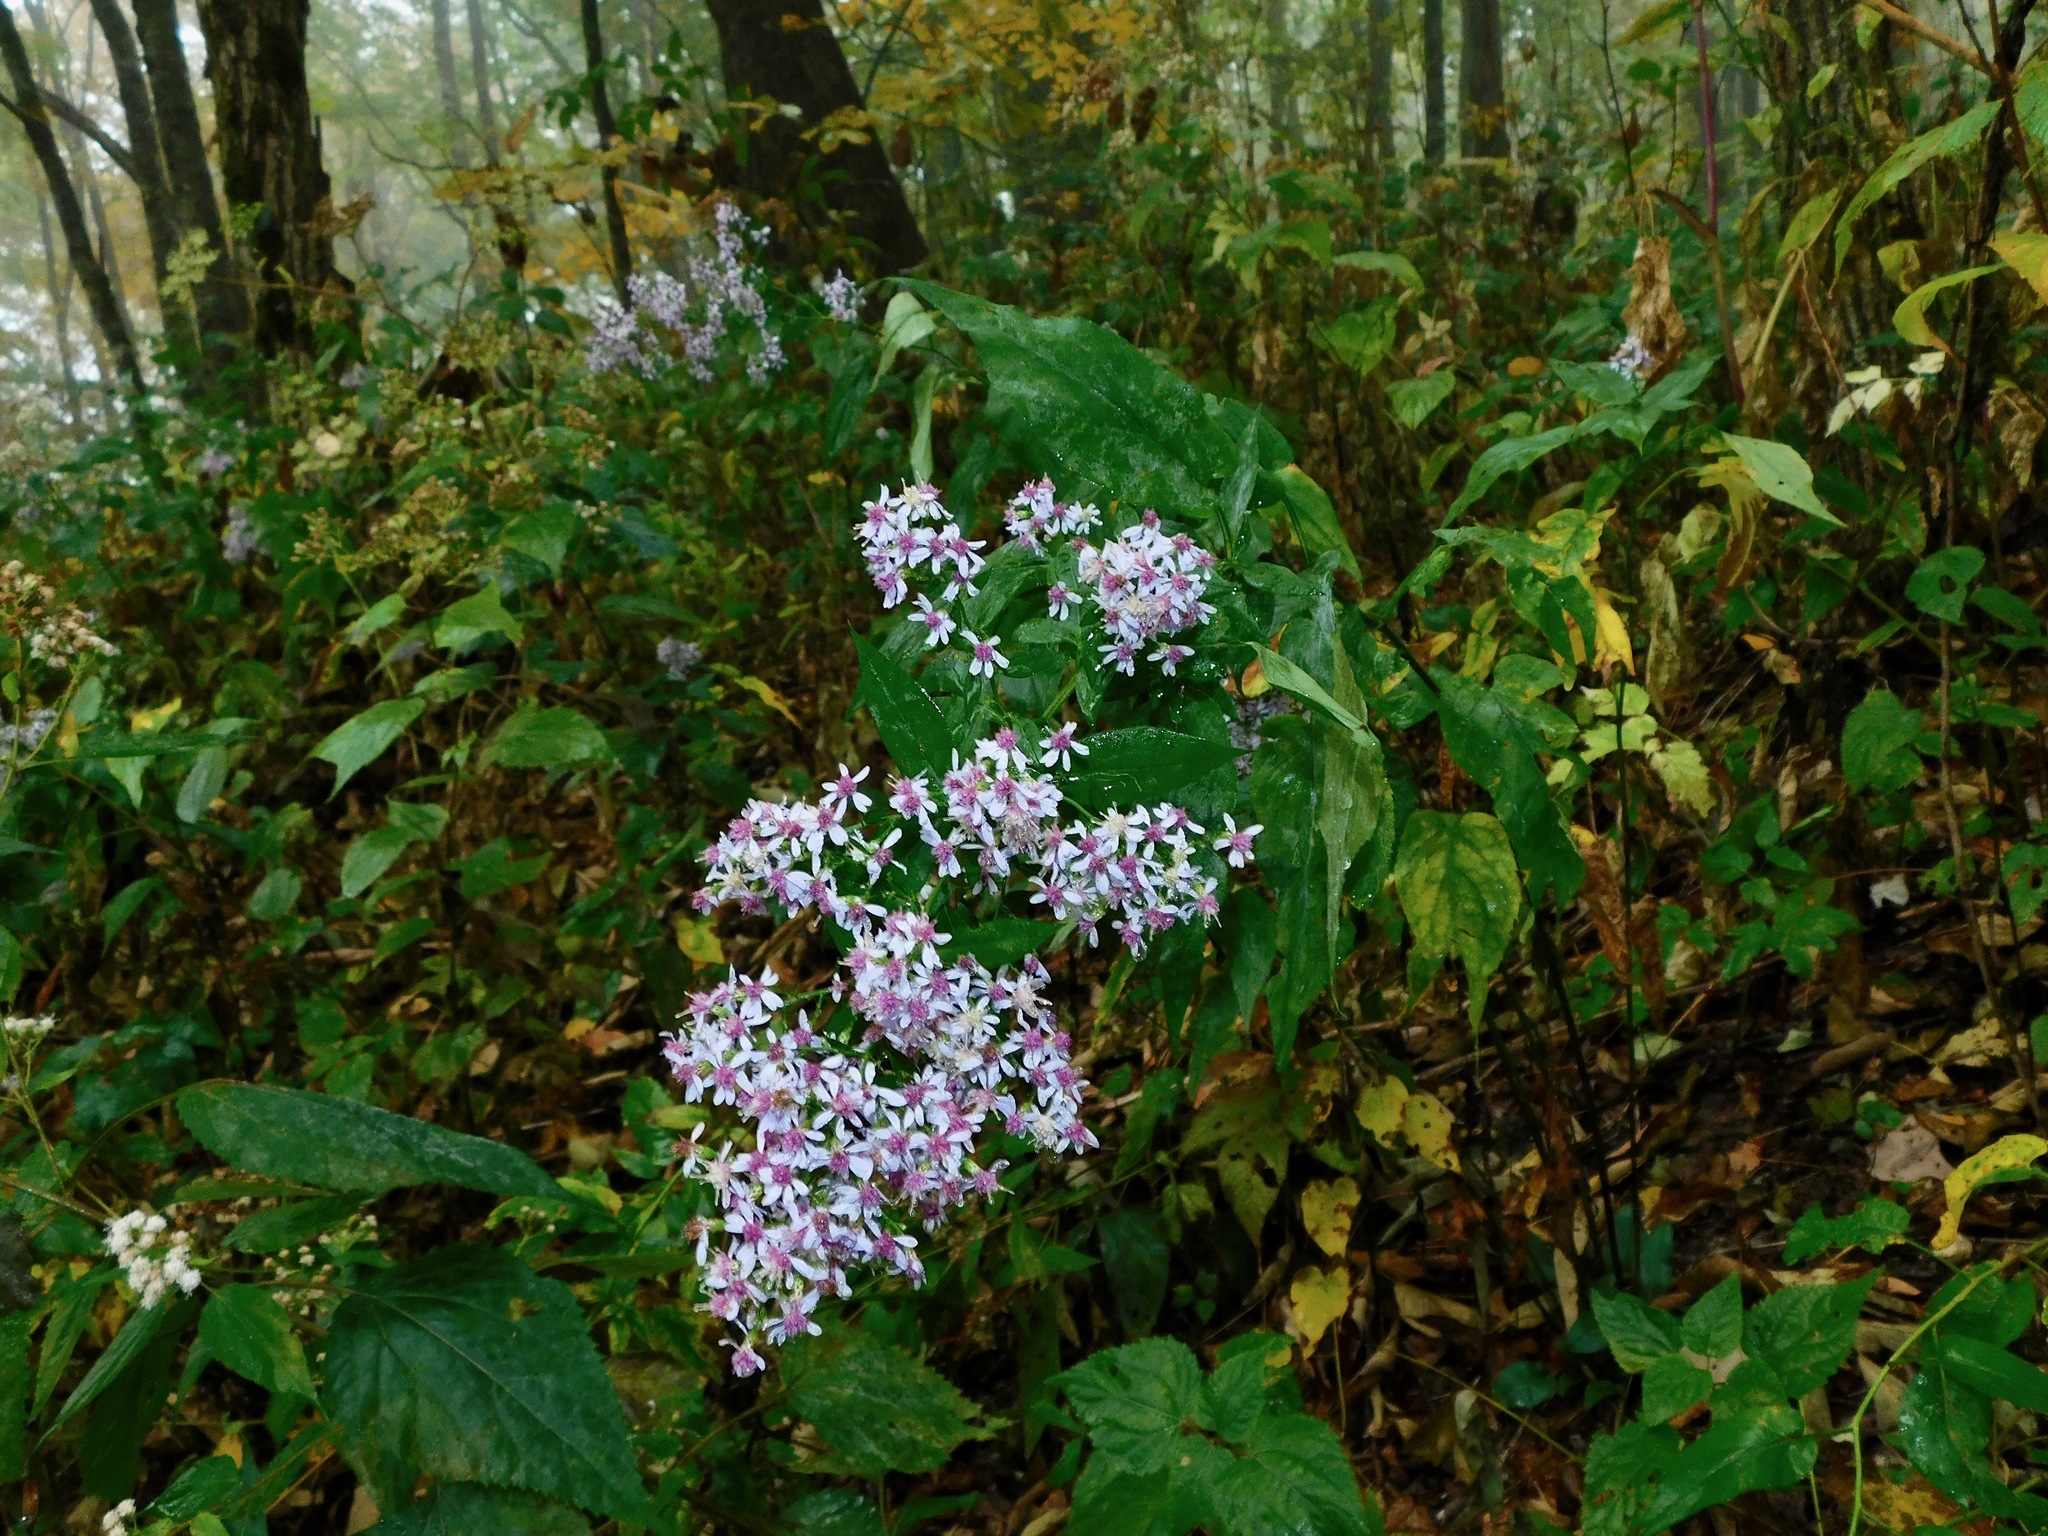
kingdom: Plantae
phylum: Tracheophyta
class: Magnoliopsida
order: Asterales
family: Asteraceae
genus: Symphyotrichum
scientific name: Symphyotrichum cordifolium
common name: Beeweed
